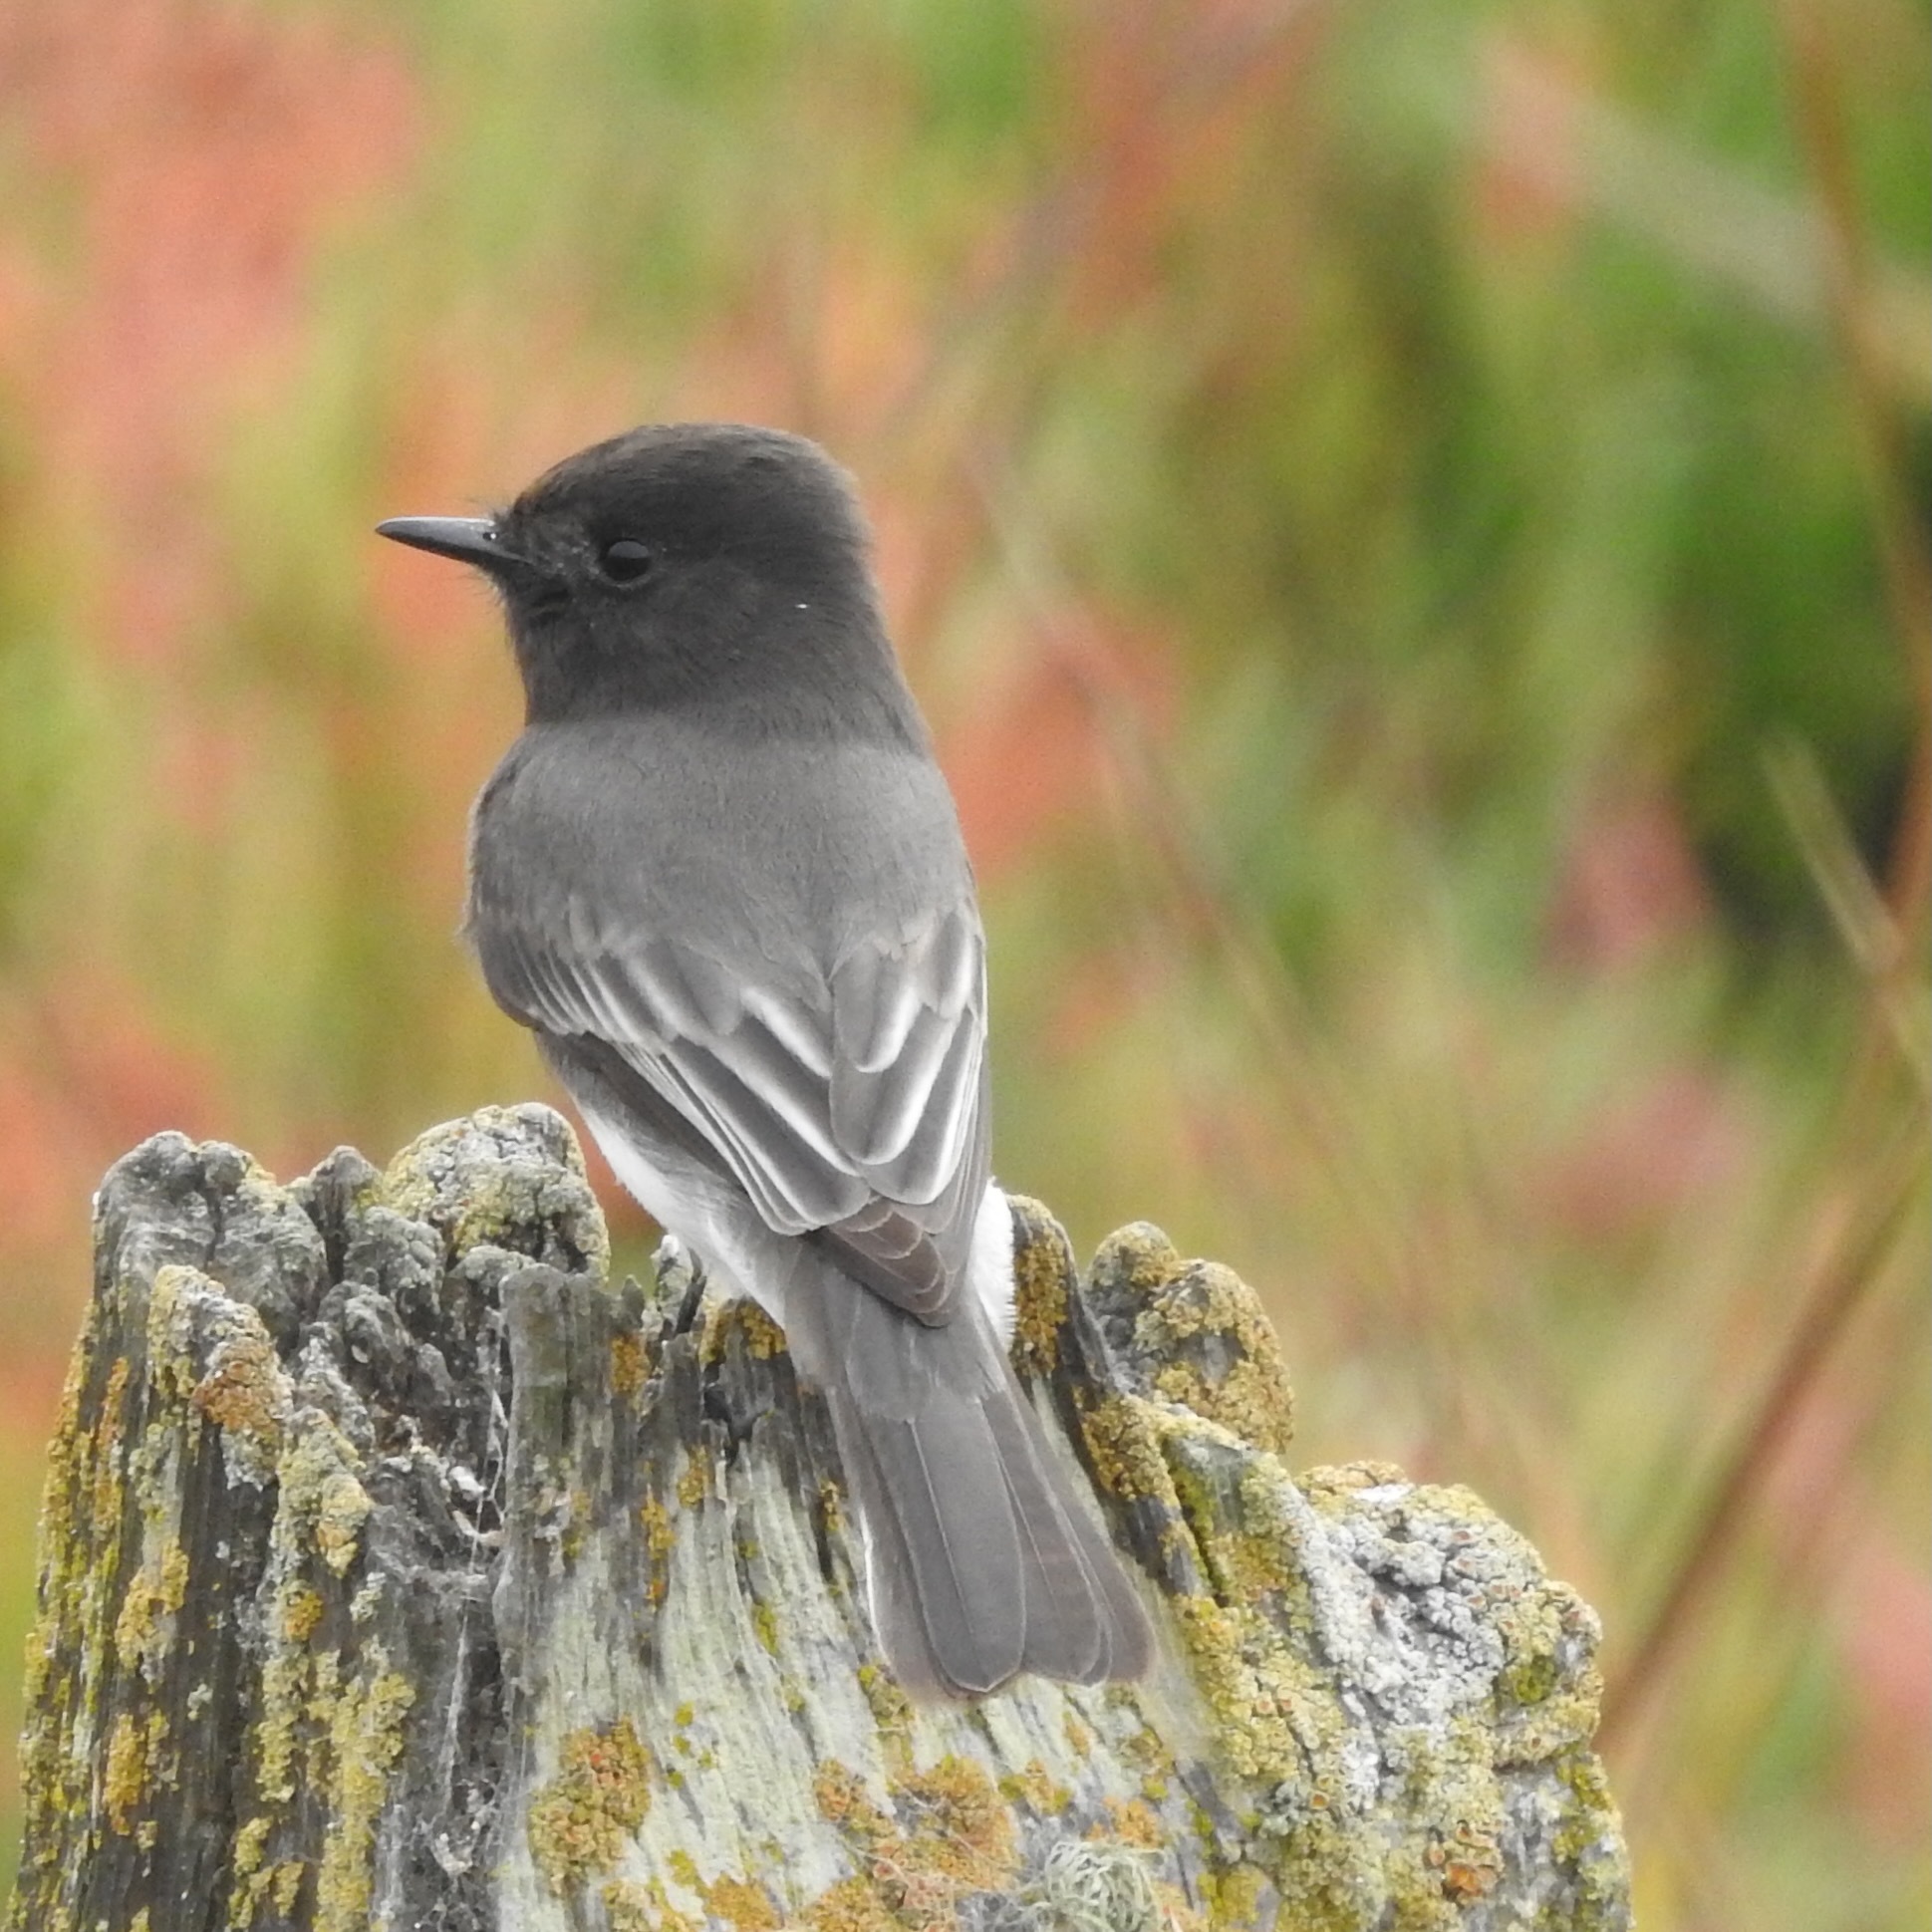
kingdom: Animalia
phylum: Chordata
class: Aves
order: Passeriformes
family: Tyrannidae
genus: Sayornis
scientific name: Sayornis nigricans
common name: Black phoebe
